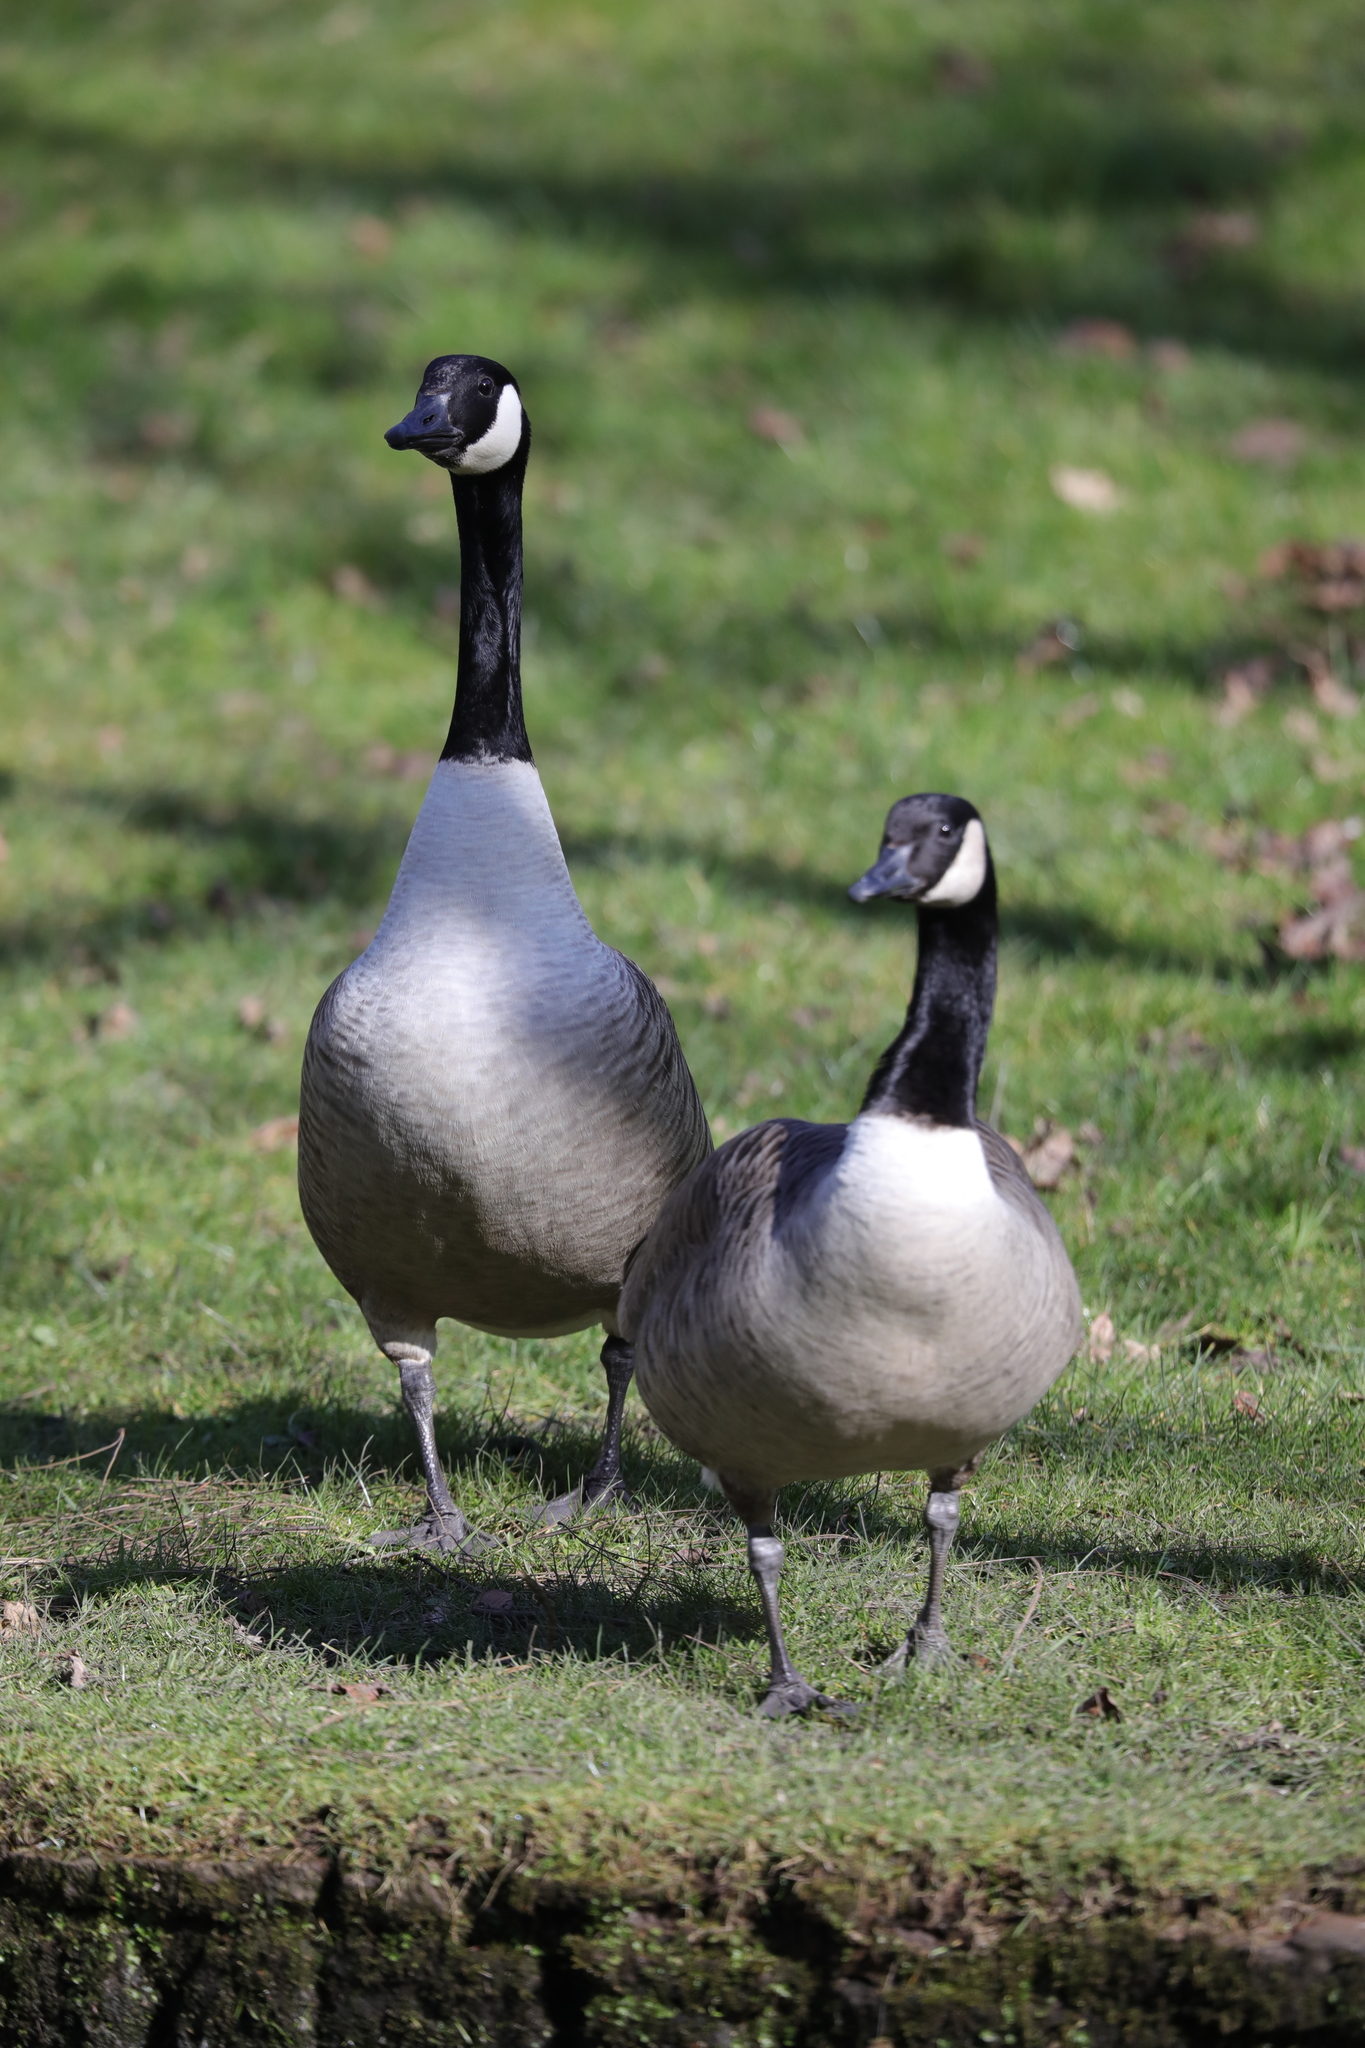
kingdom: Animalia
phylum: Chordata
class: Aves
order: Anseriformes
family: Anatidae
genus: Branta
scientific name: Branta canadensis
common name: Canada goose
